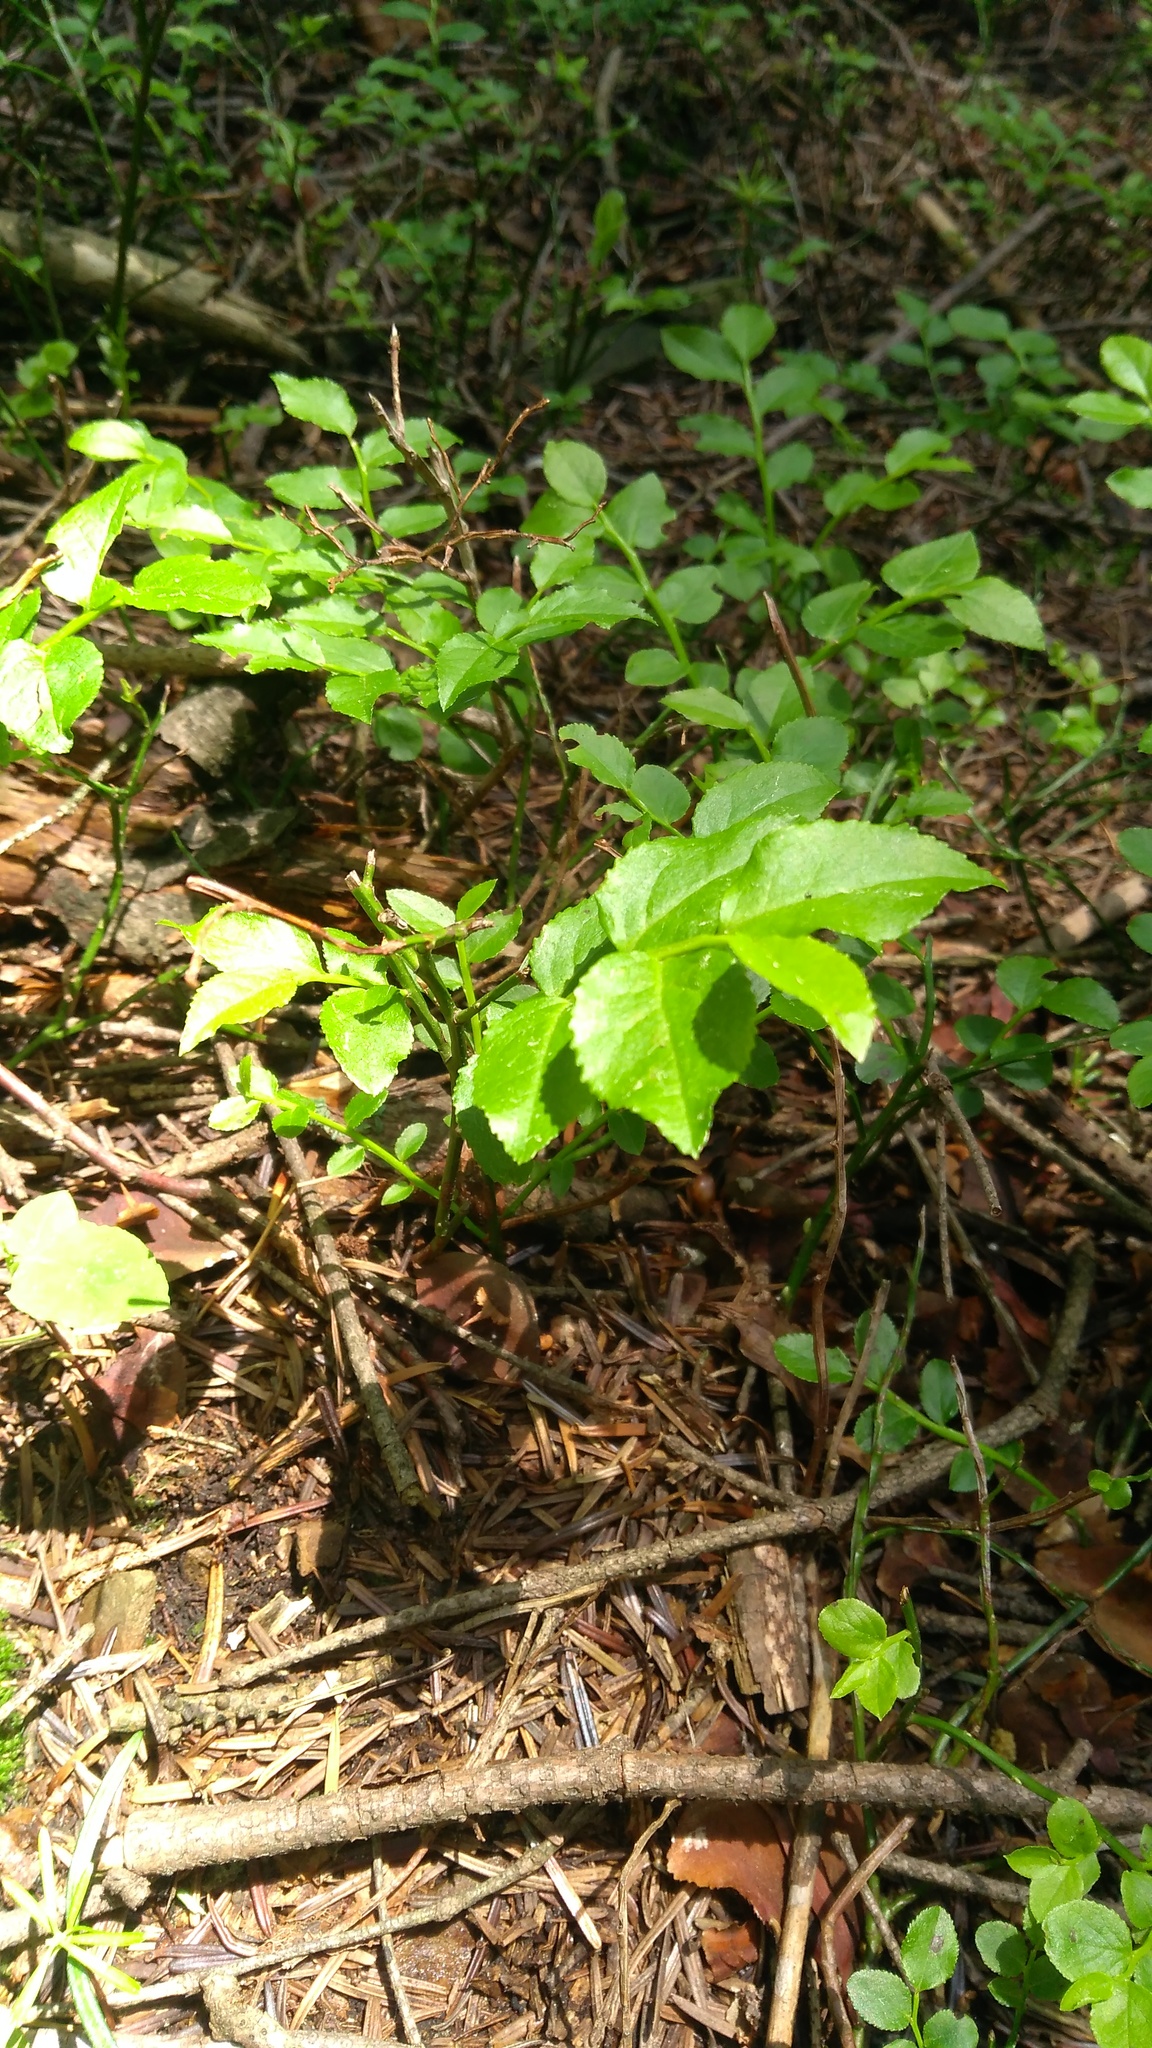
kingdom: Plantae
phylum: Tracheophyta
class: Magnoliopsida
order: Ericales
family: Ericaceae
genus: Vaccinium
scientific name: Vaccinium myrtillus
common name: Bilberry
